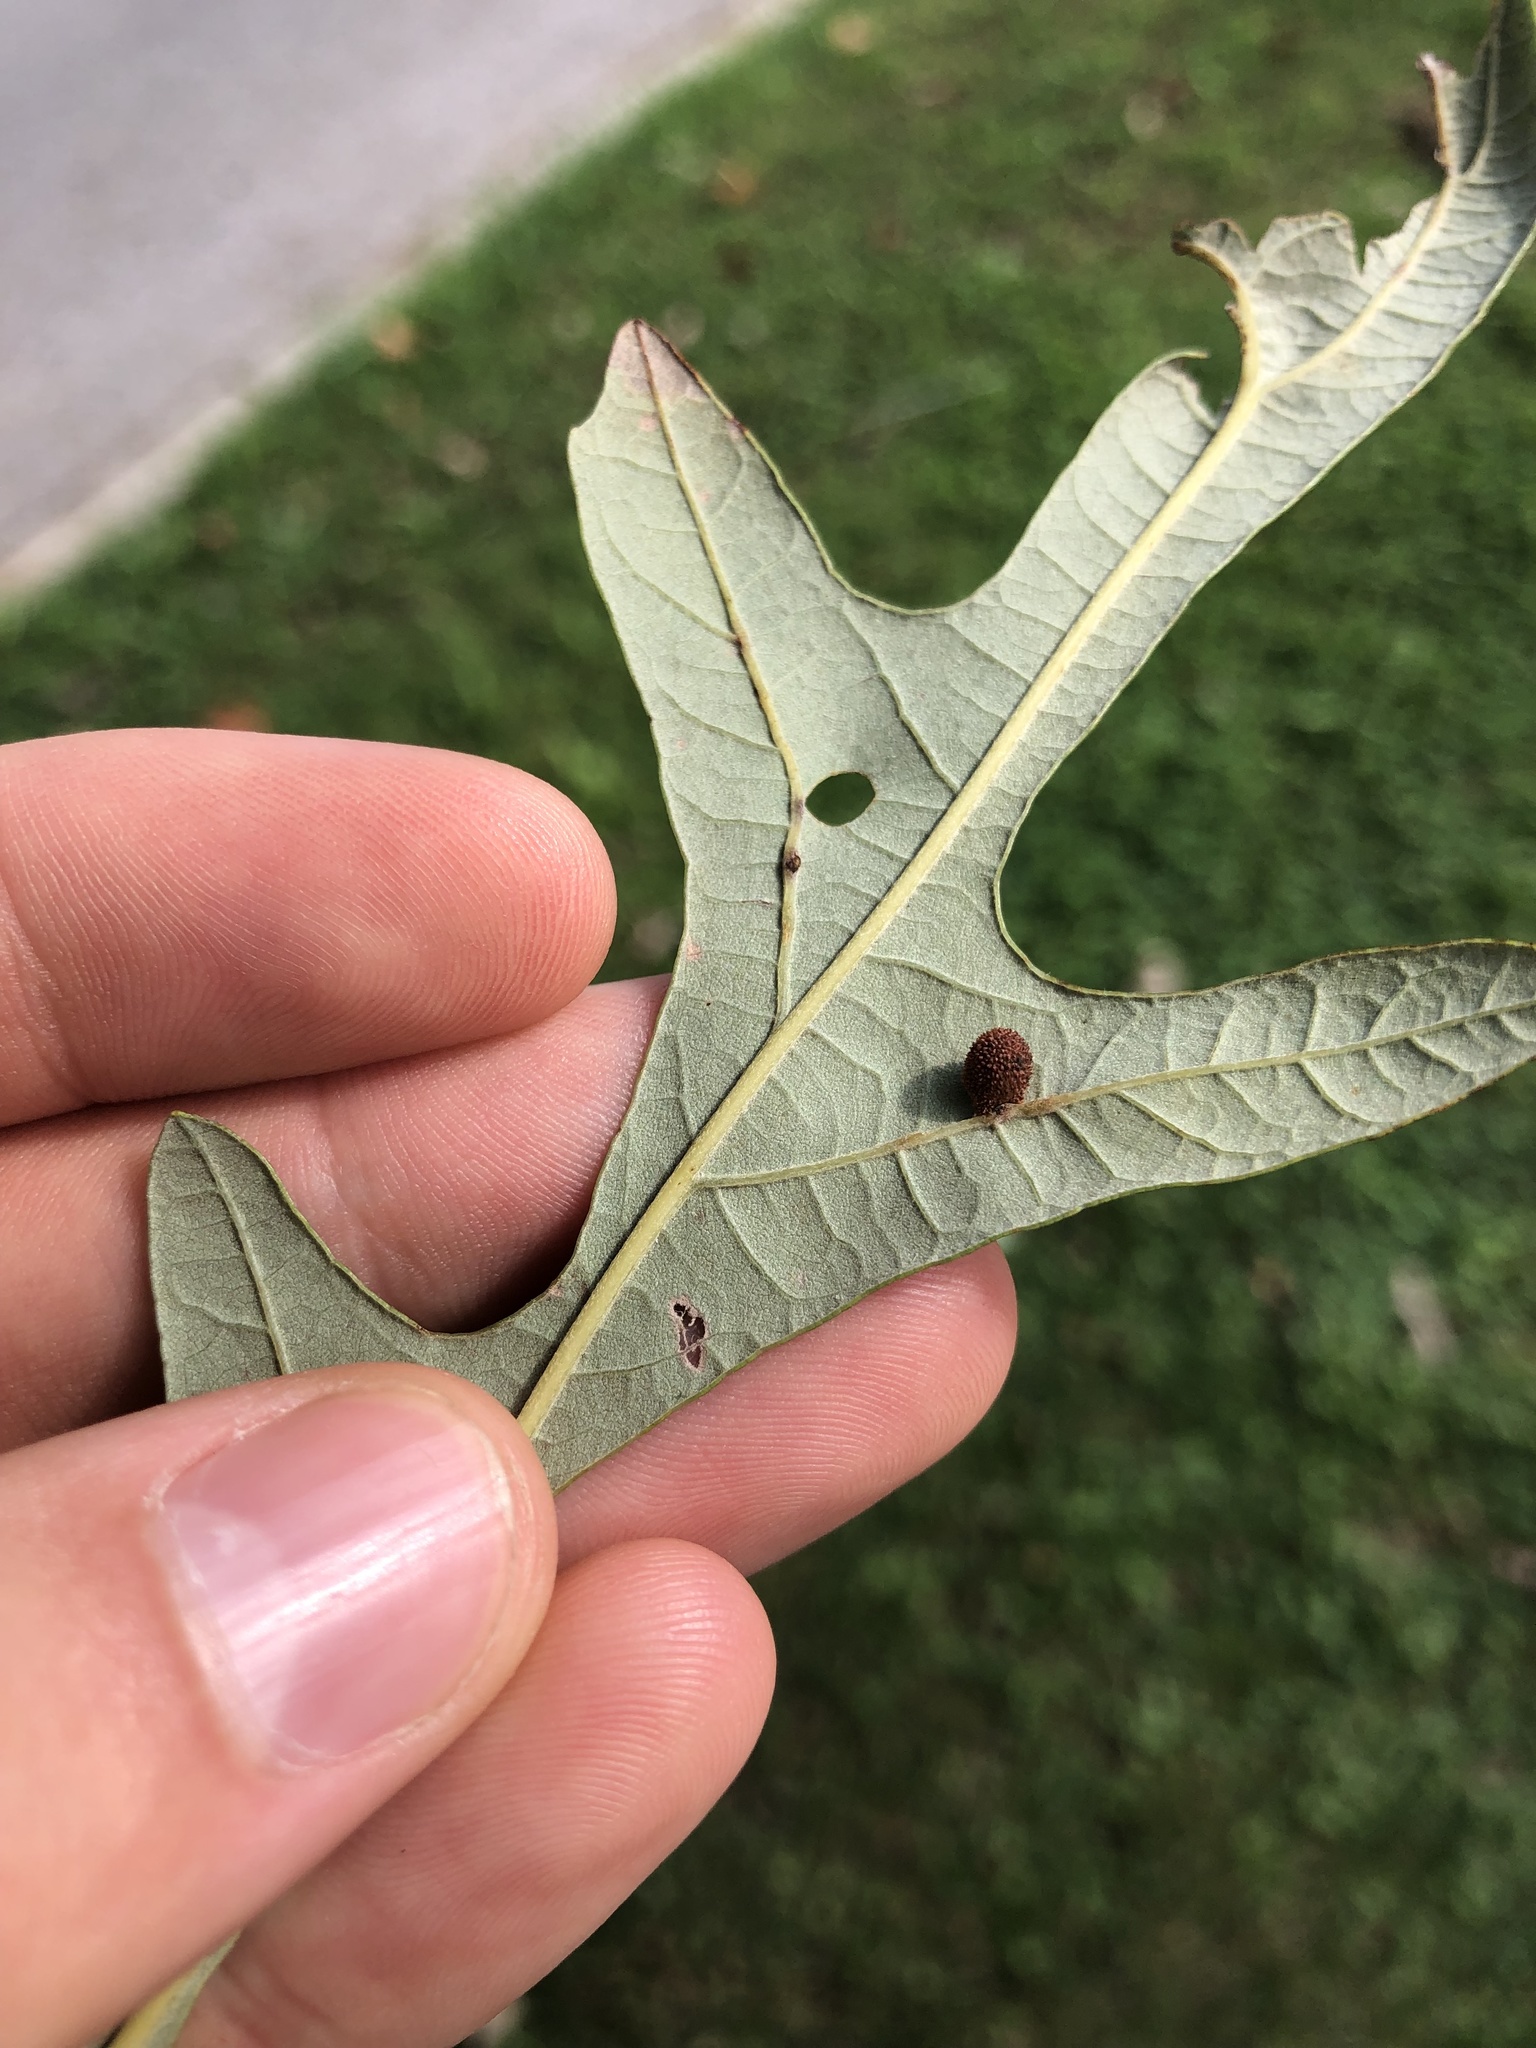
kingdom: Animalia
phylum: Arthropoda
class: Insecta
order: Hymenoptera
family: Cynipidae
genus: Acraspis
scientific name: Acraspis quercushirta
